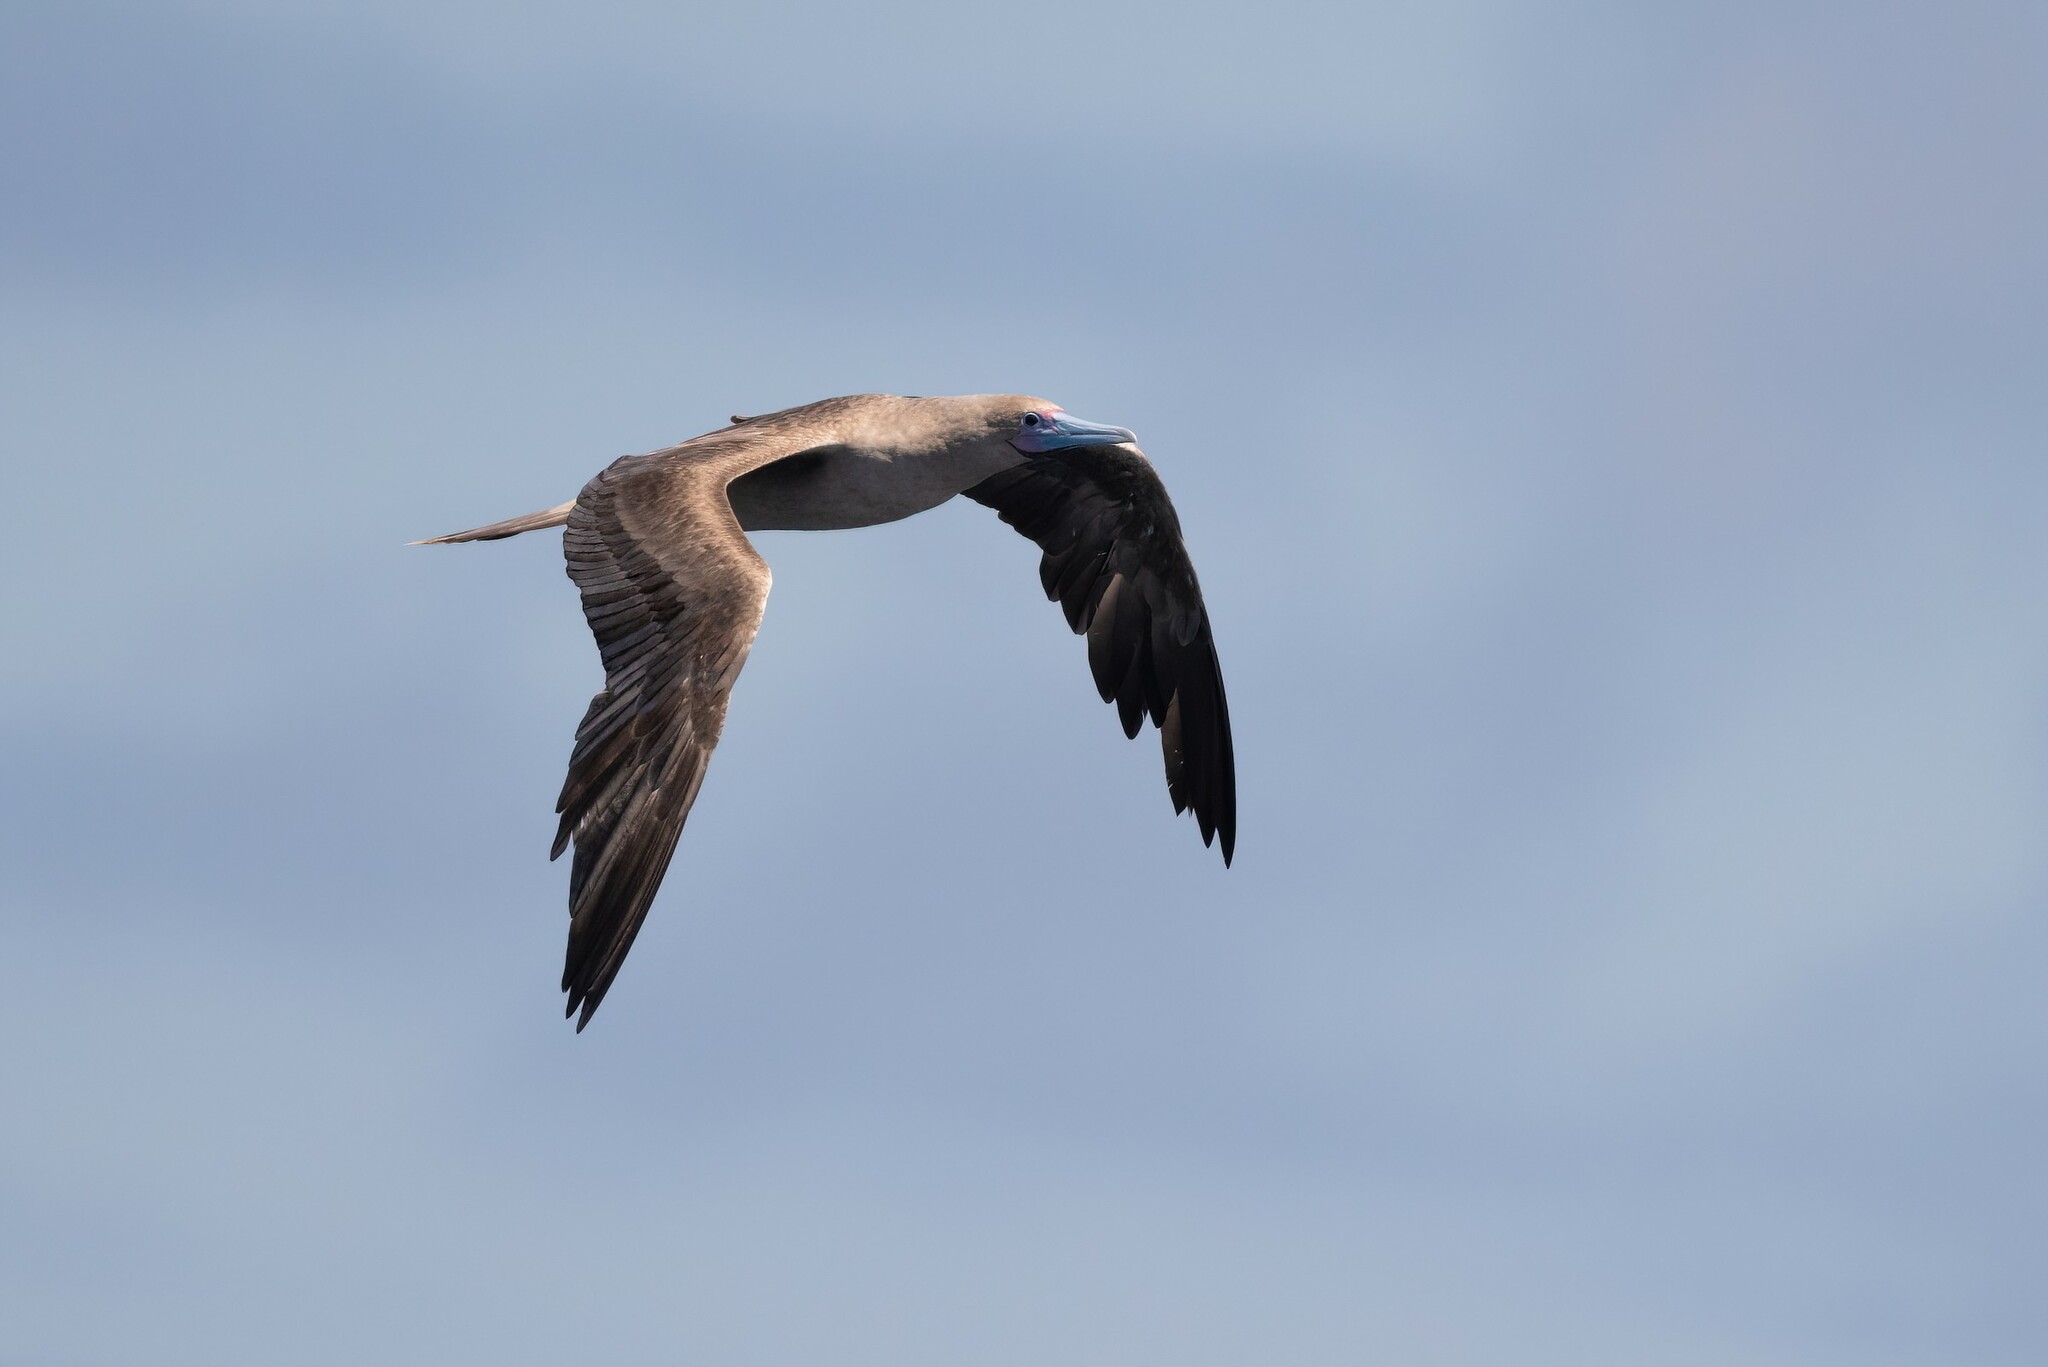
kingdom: Animalia
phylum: Chordata
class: Aves
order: Suliformes
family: Sulidae
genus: Sula
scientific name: Sula sula
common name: Red-footed booby
